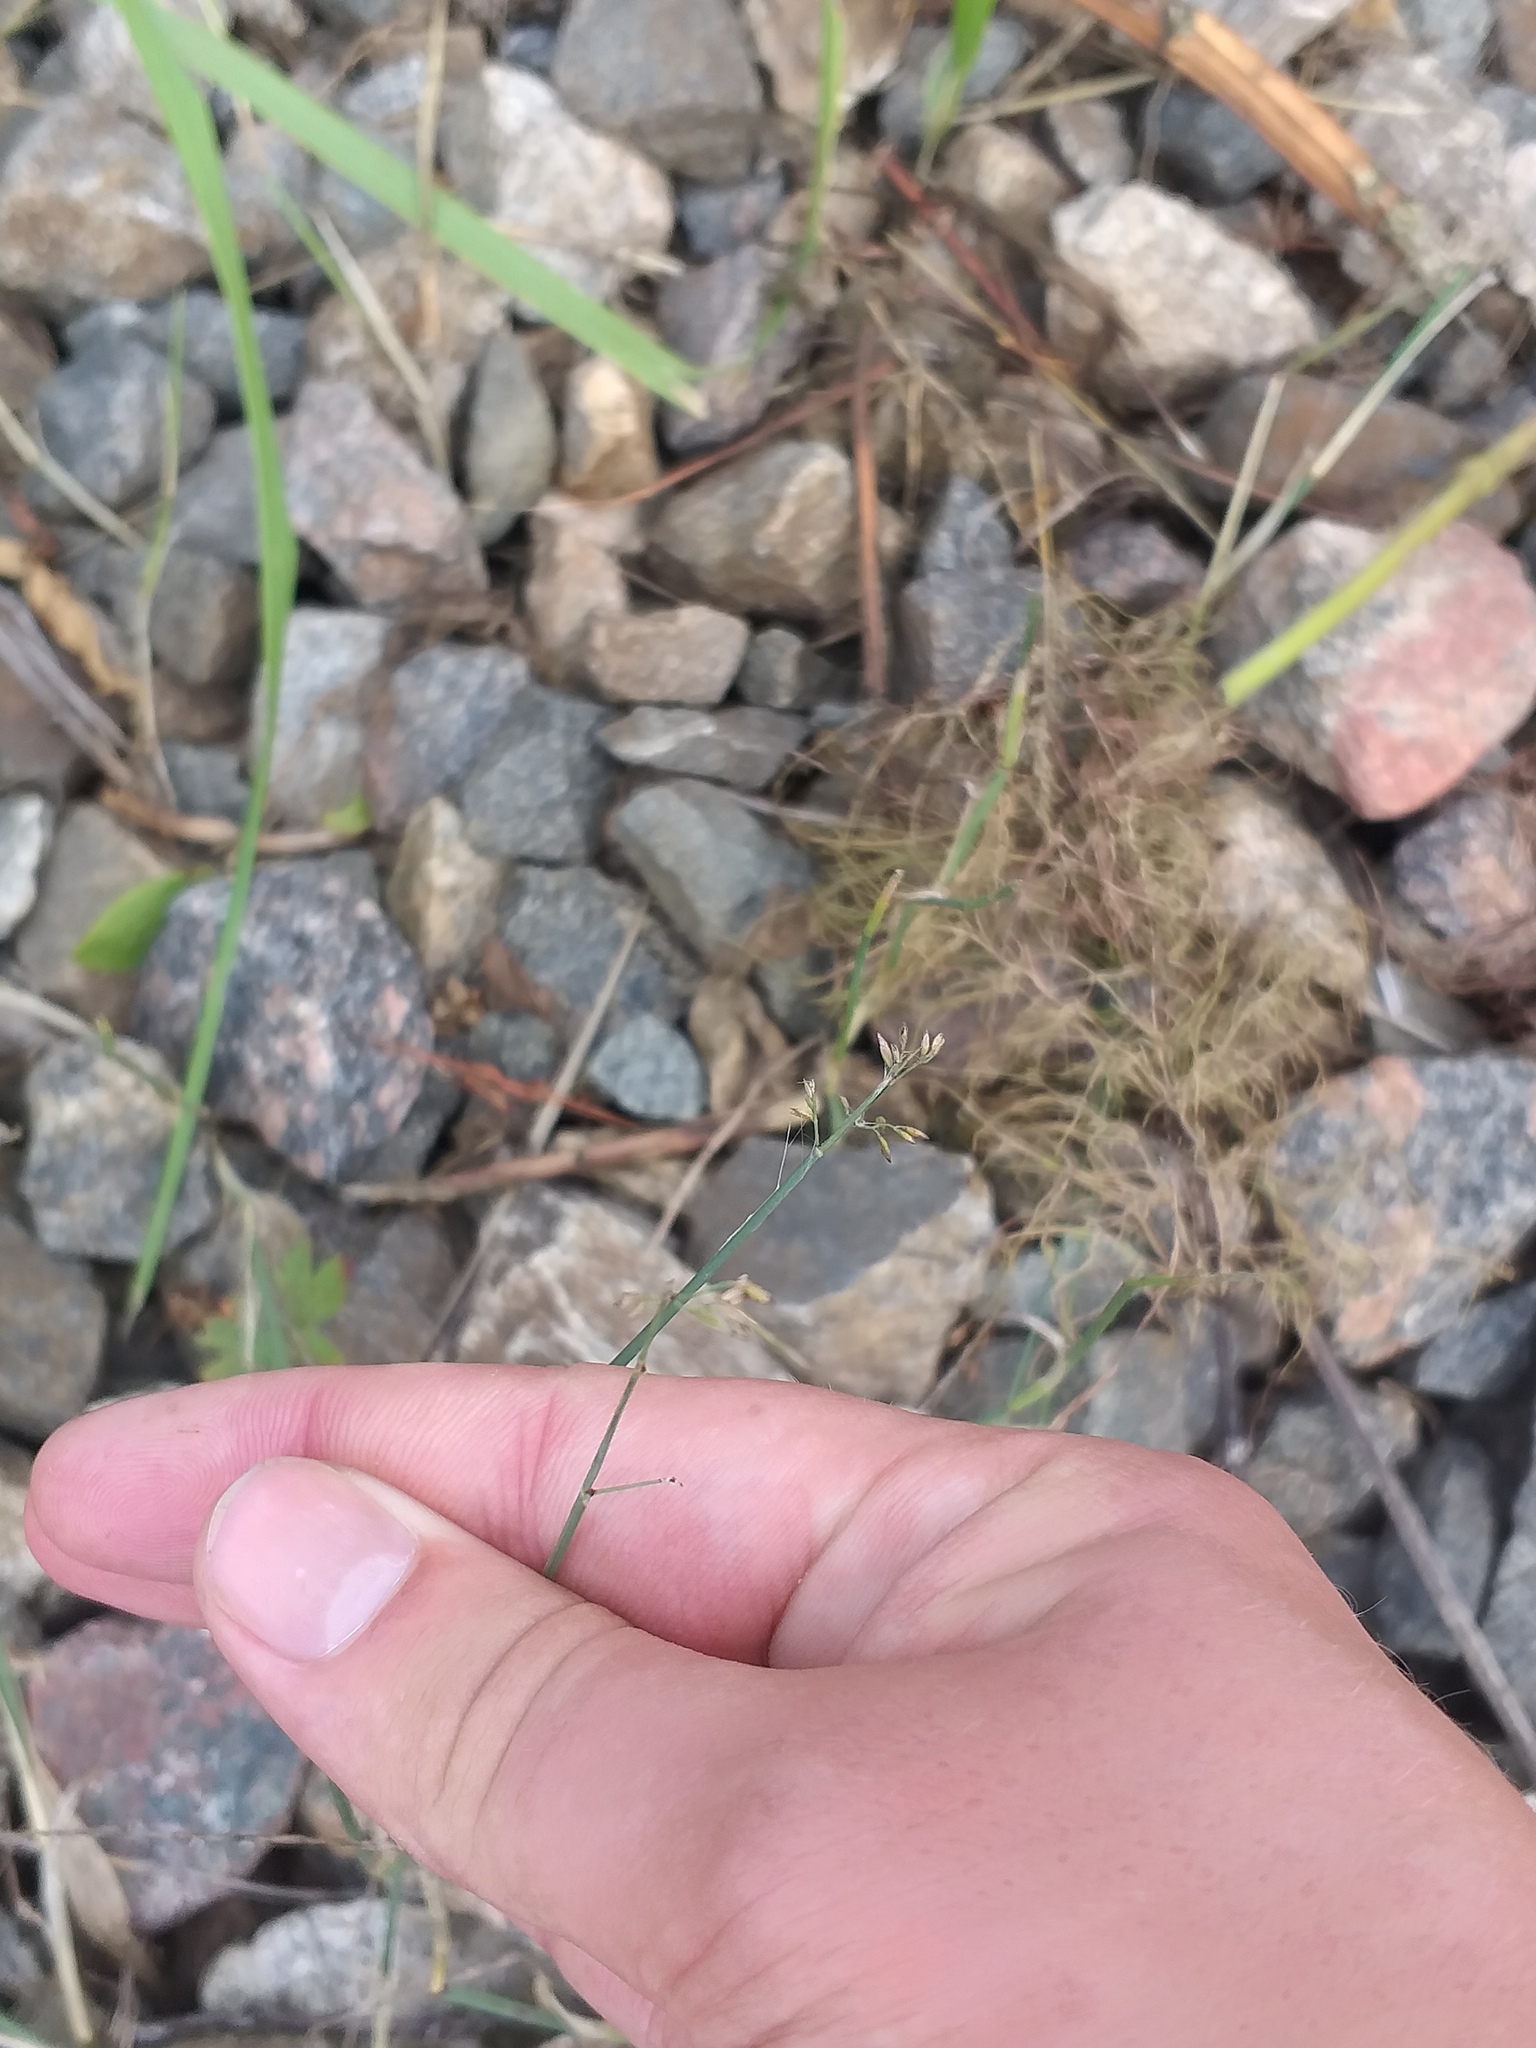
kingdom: Plantae
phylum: Tracheophyta
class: Liliopsida
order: Poales
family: Poaceae
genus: Poa
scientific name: Poa compressa
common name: Canada bluegrass
